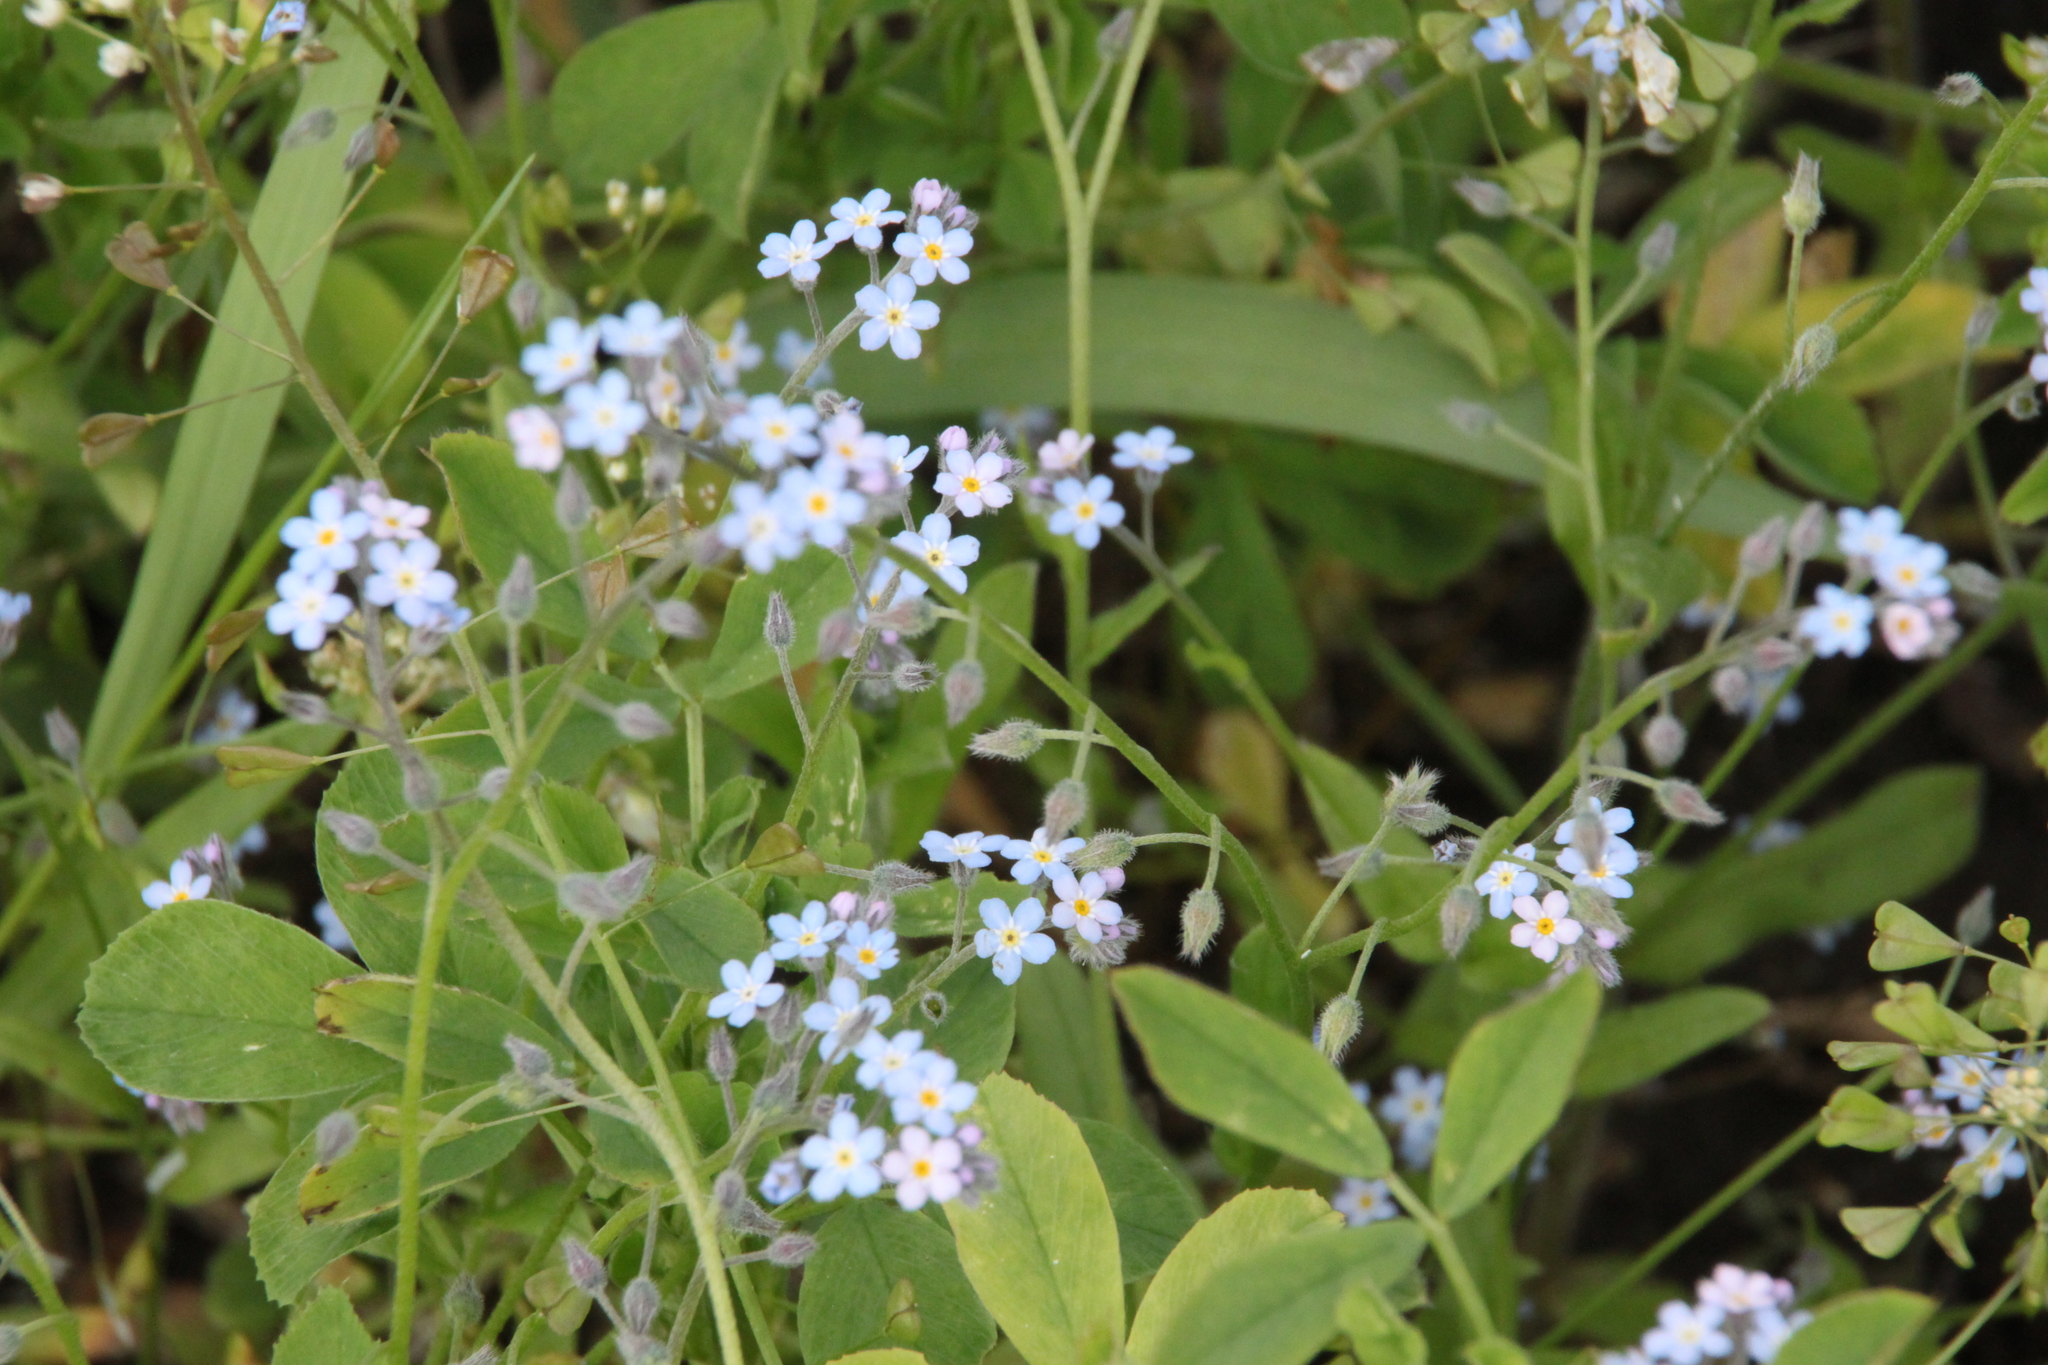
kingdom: Plantae
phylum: Tracheophyta
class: Magnoliopsida
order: Boraginales
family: Boraginaceae
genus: Myosotis
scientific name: Myosotis arvensis
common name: Field forget-me-not
